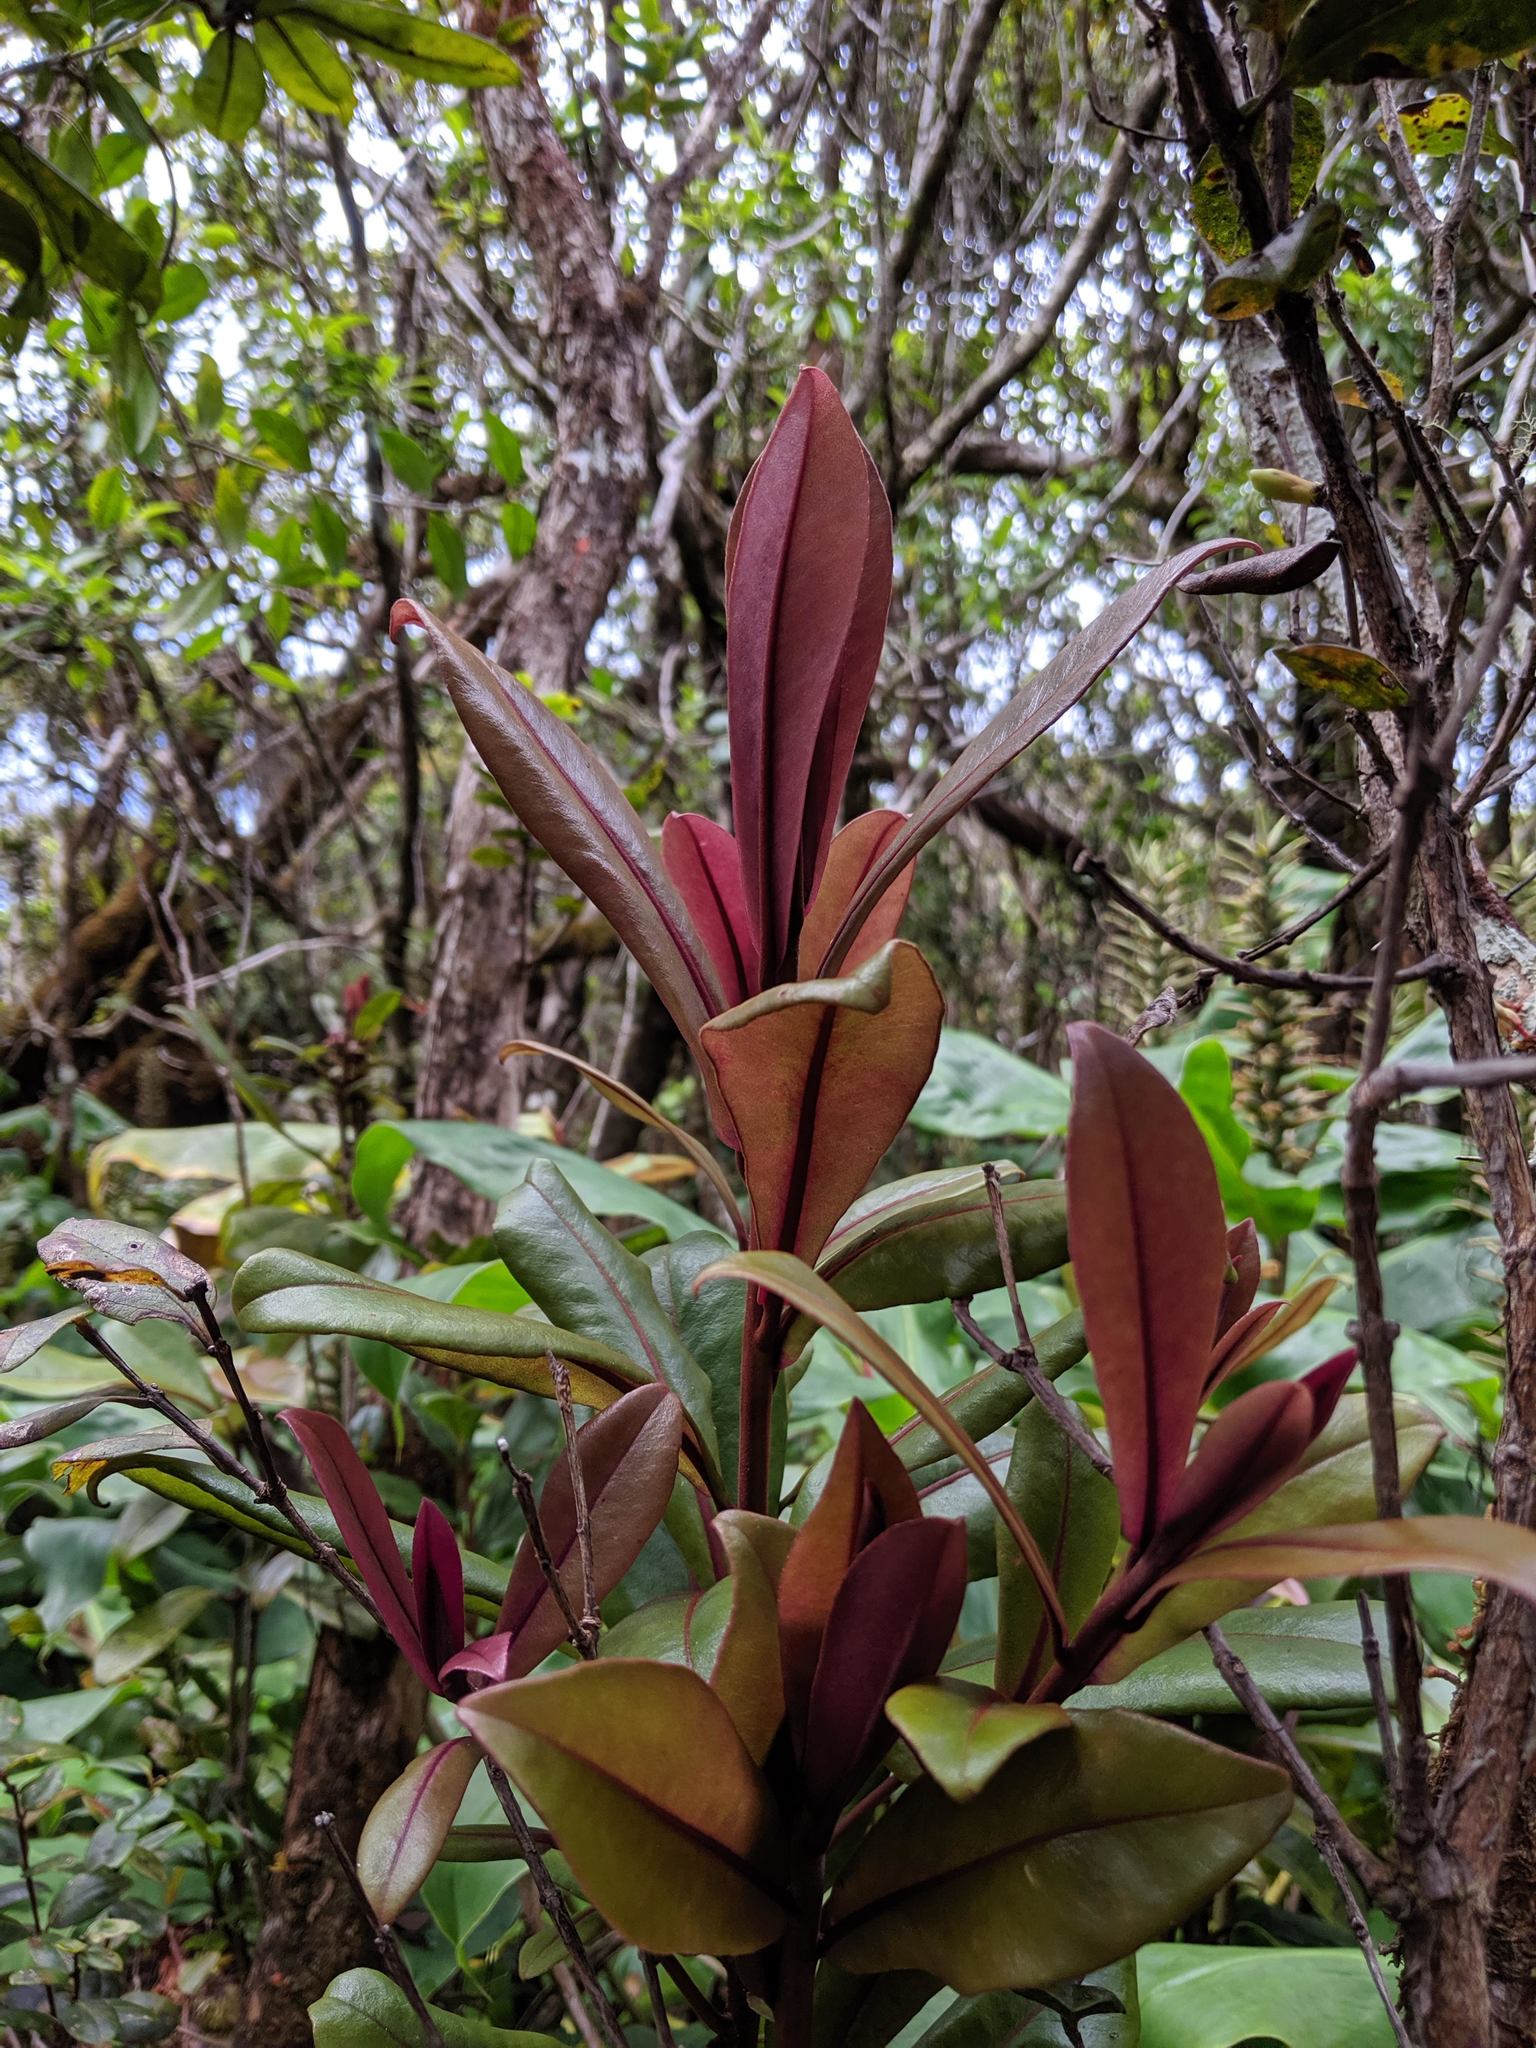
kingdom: Plantae
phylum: Tracheophyta
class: Magnoliopsida
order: Ericales
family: Primulaceae
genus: Myrsine
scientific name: Myrsine wawraea
